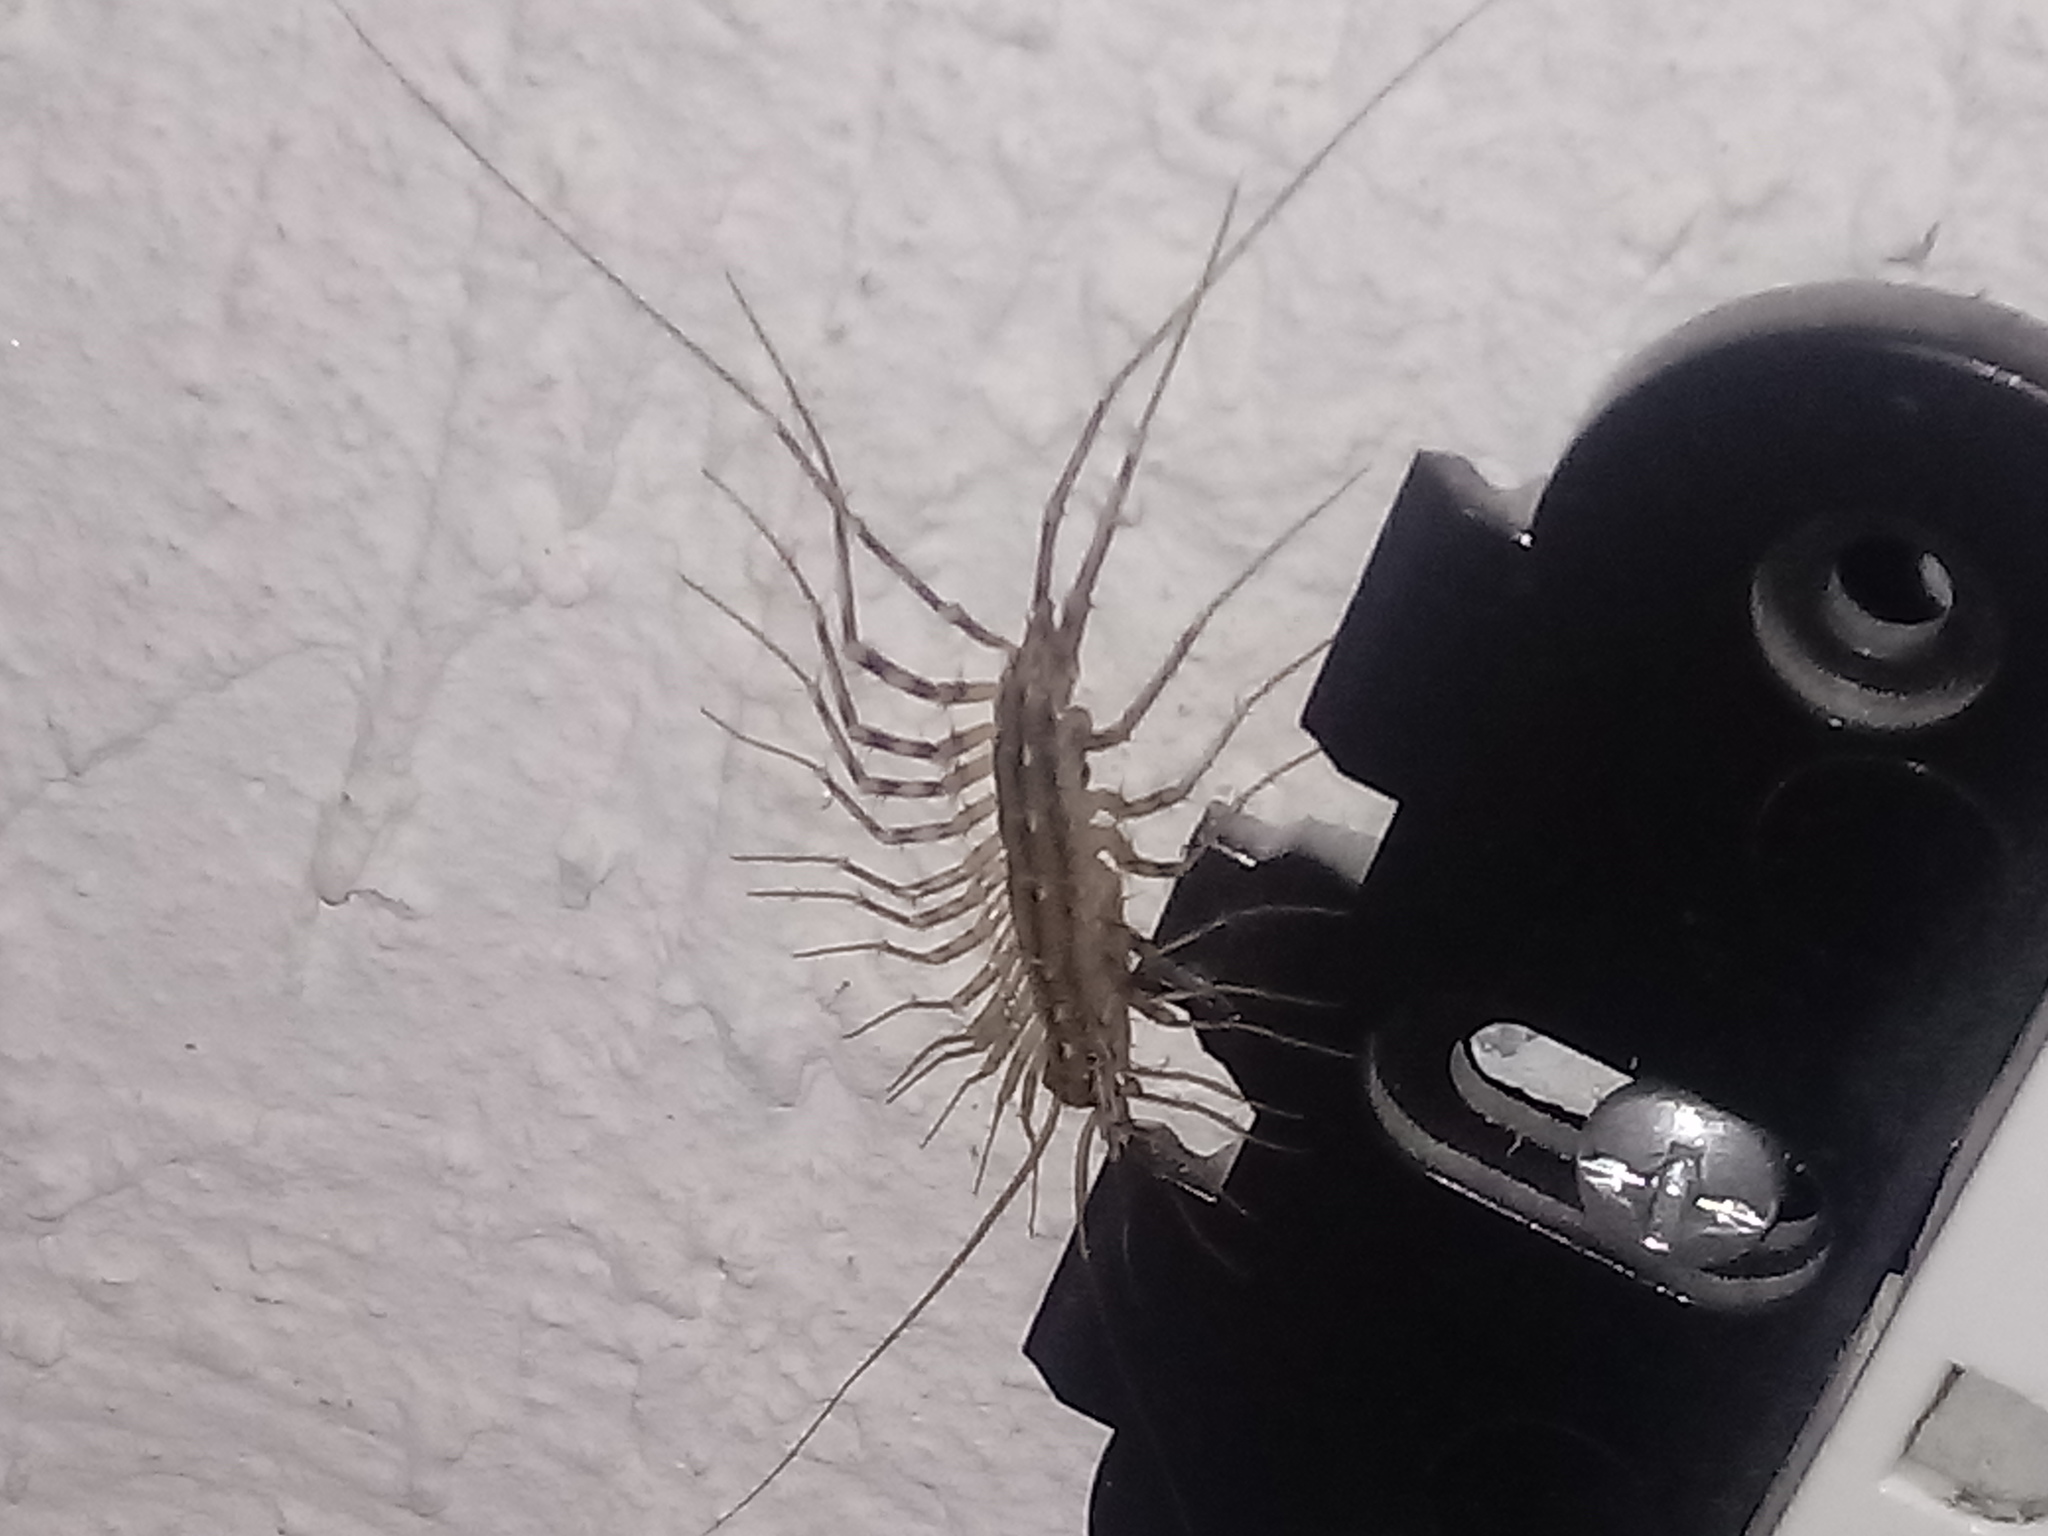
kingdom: Animalia
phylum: Arthropoda
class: Chilopoda
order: Scutigeromorpha
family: Scutigeridae
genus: Scutigera
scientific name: Scutigera coleoptrata
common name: House centipede
